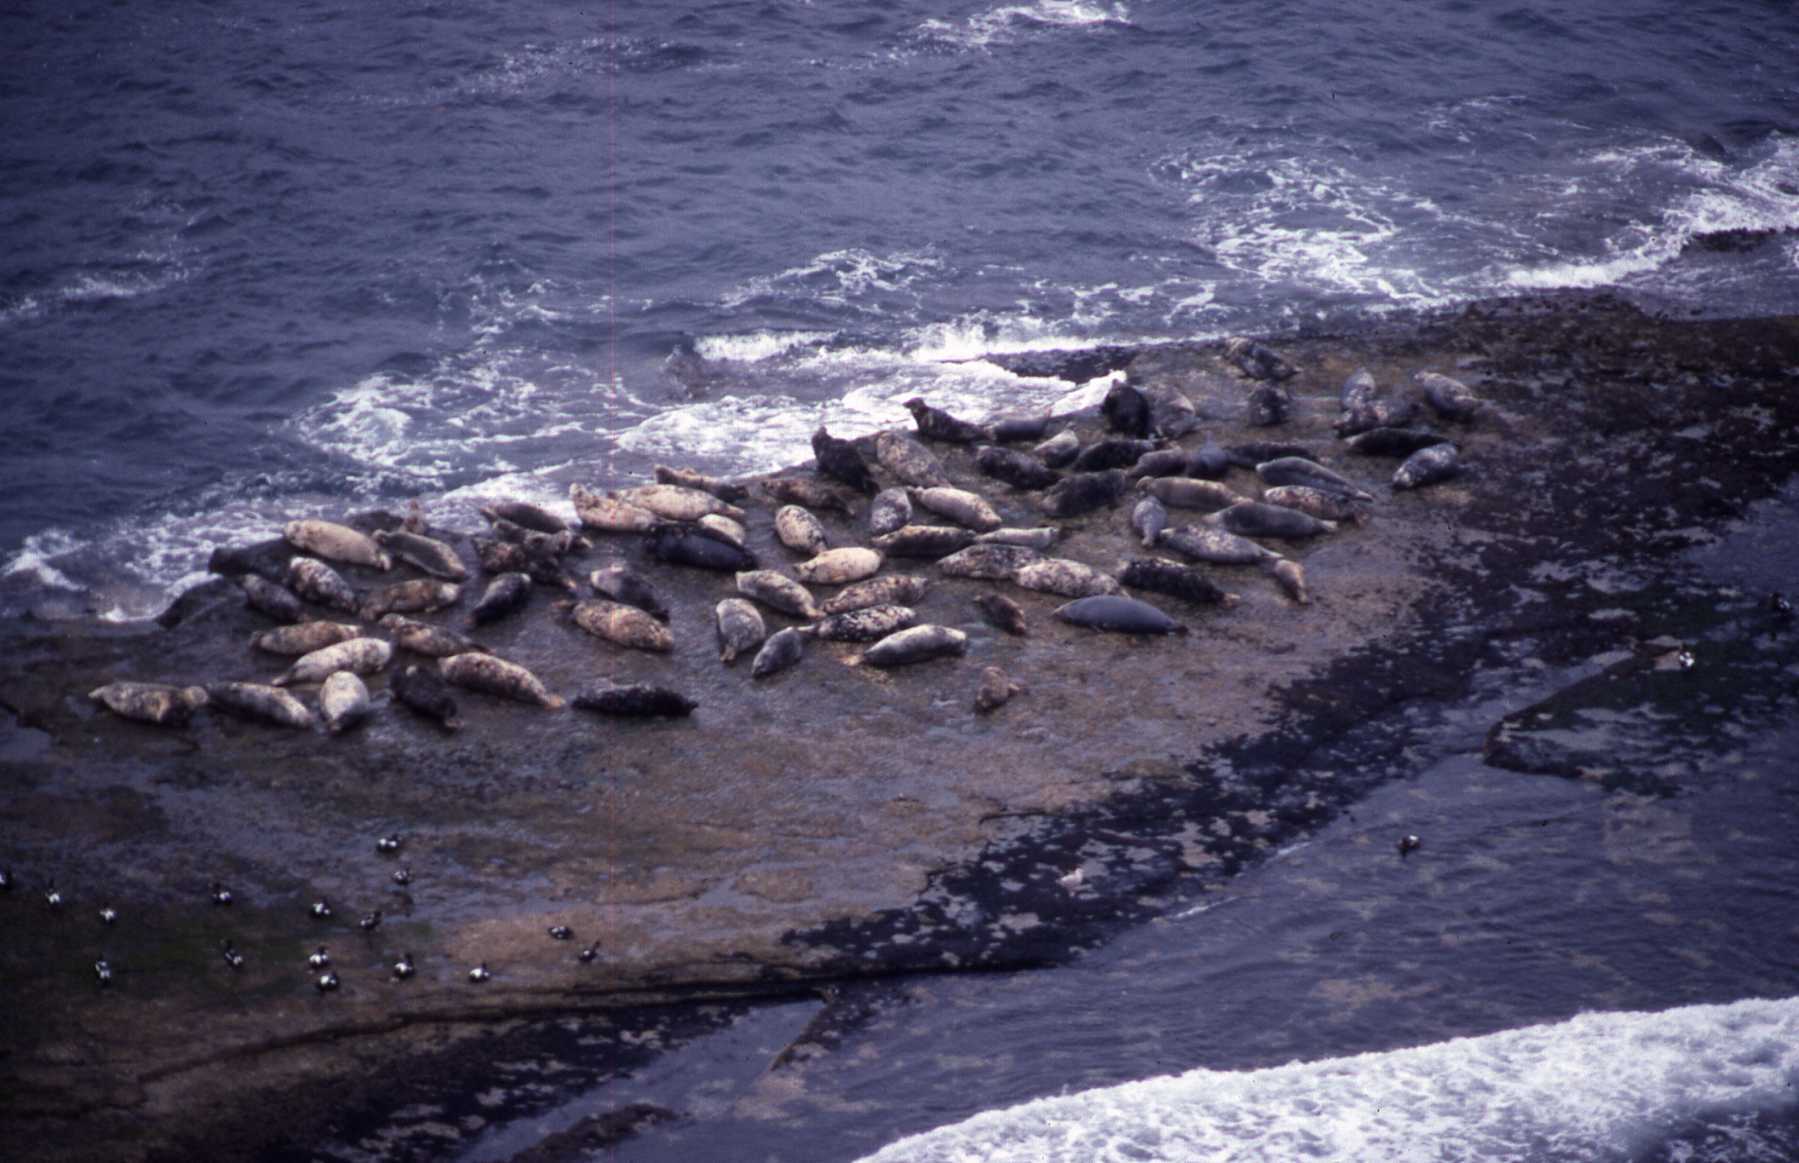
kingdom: Animalia
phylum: Chordata
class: Mammalia
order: Carnivora
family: Phocidae
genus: Halichoerus
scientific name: Halichoerus grypus
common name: Grey seal
